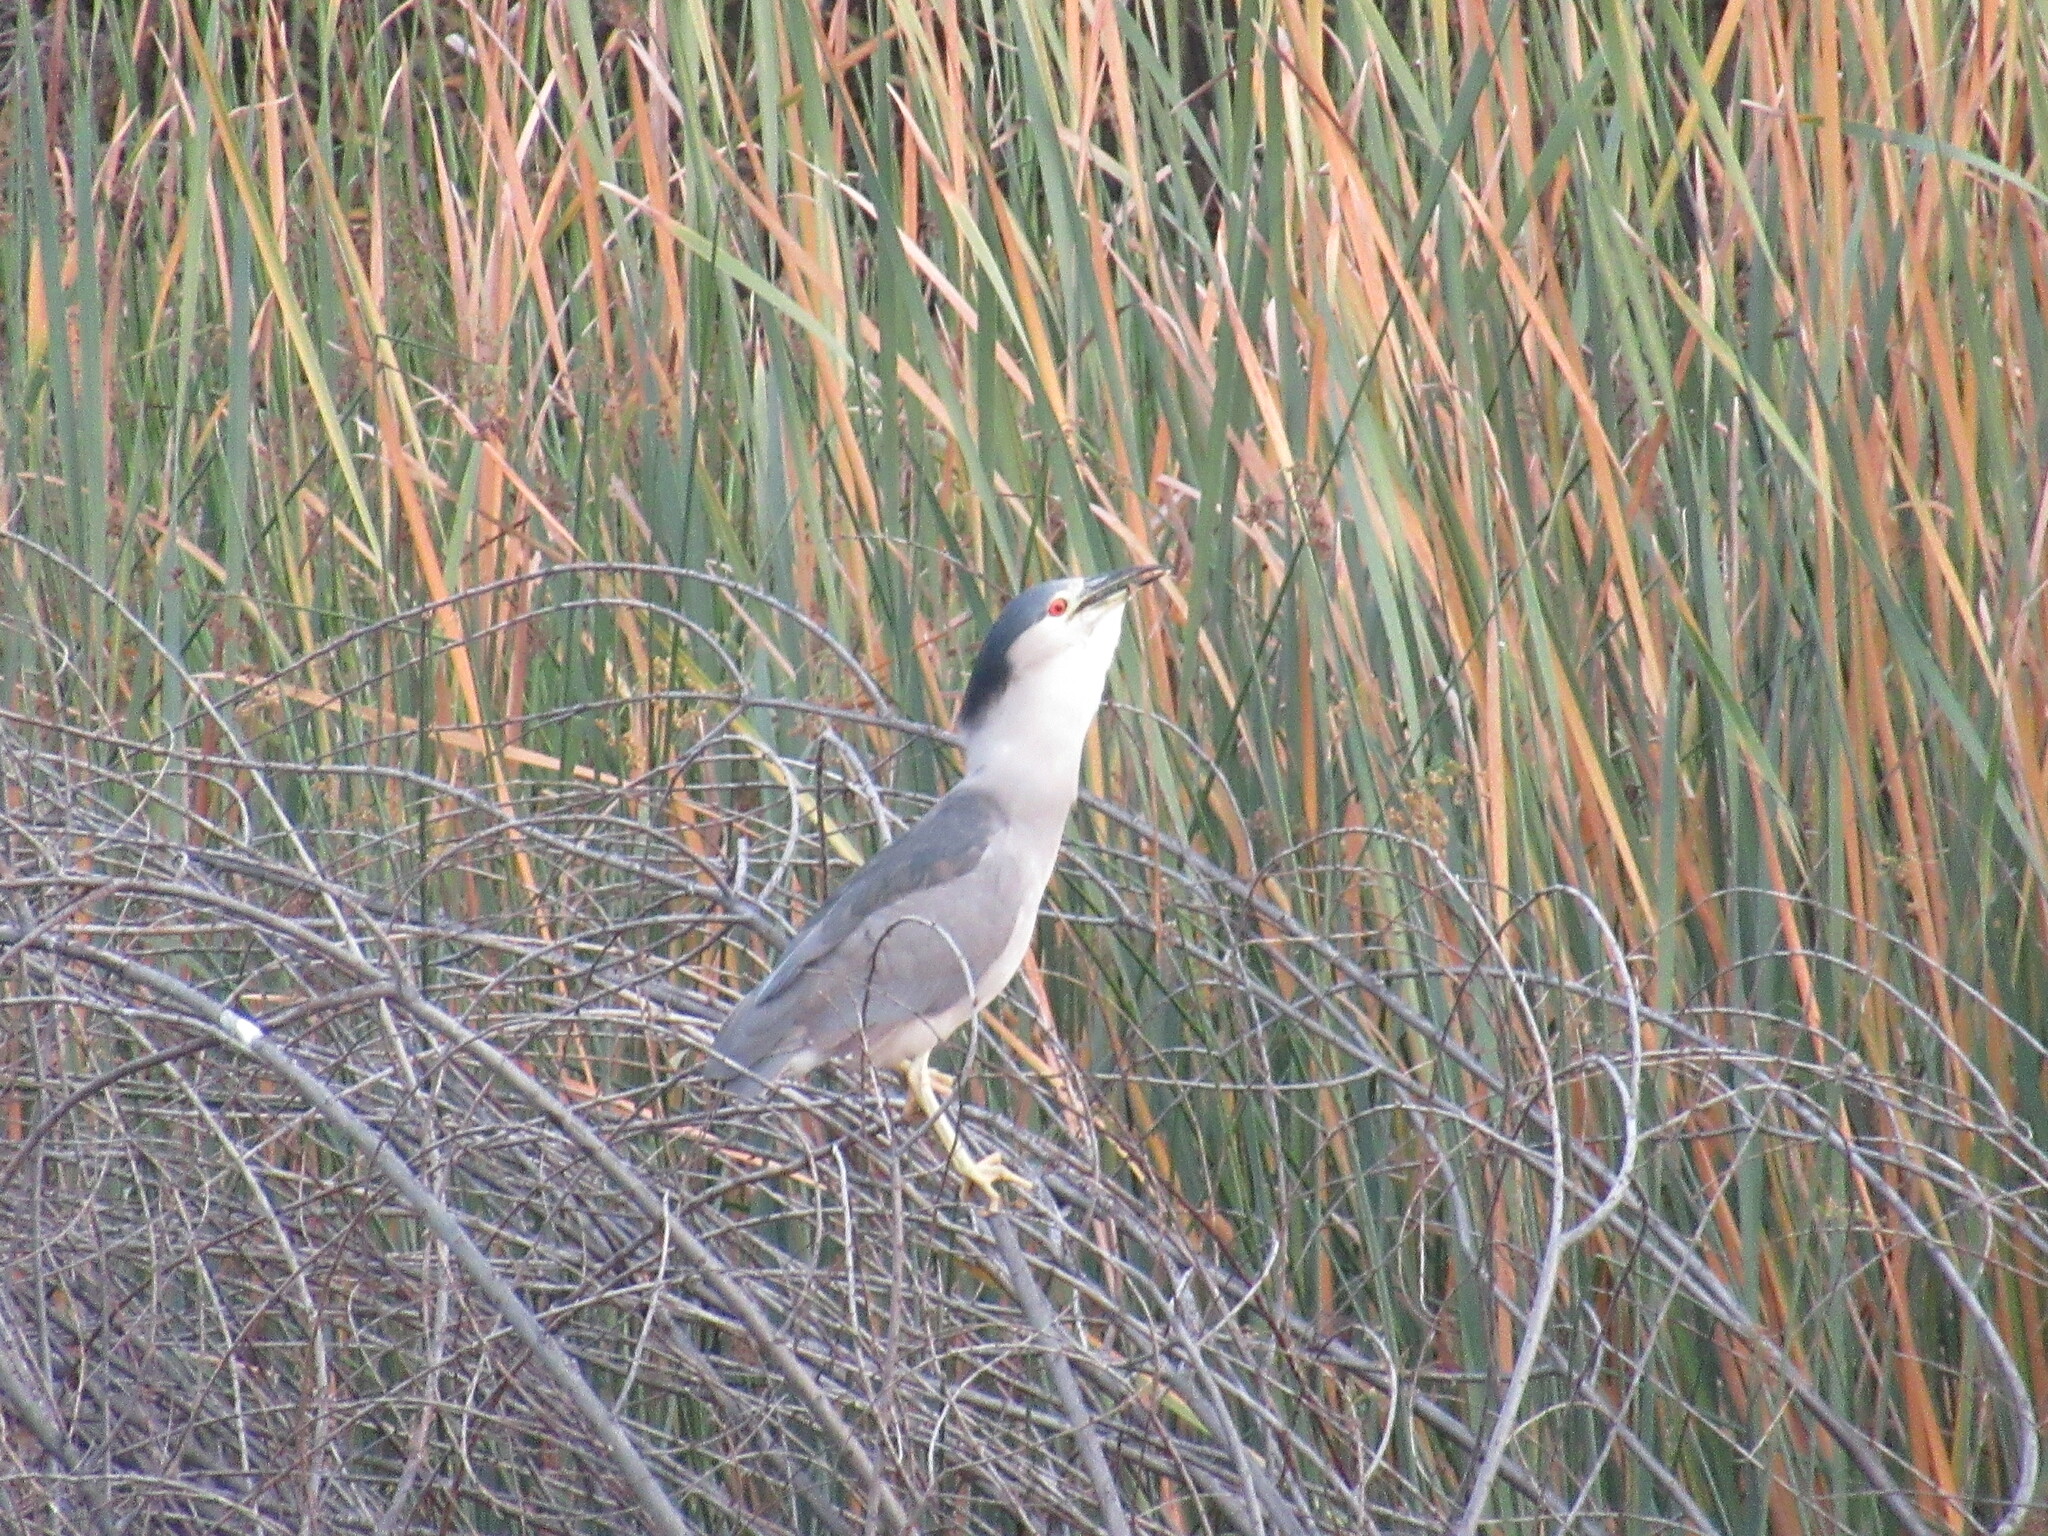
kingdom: Animalia
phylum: Chordata
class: Aves
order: Pelecaniformes
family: Ardeidae
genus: Nycticorax
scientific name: Nycticorax nycticorax
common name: Black-crowned night heron
